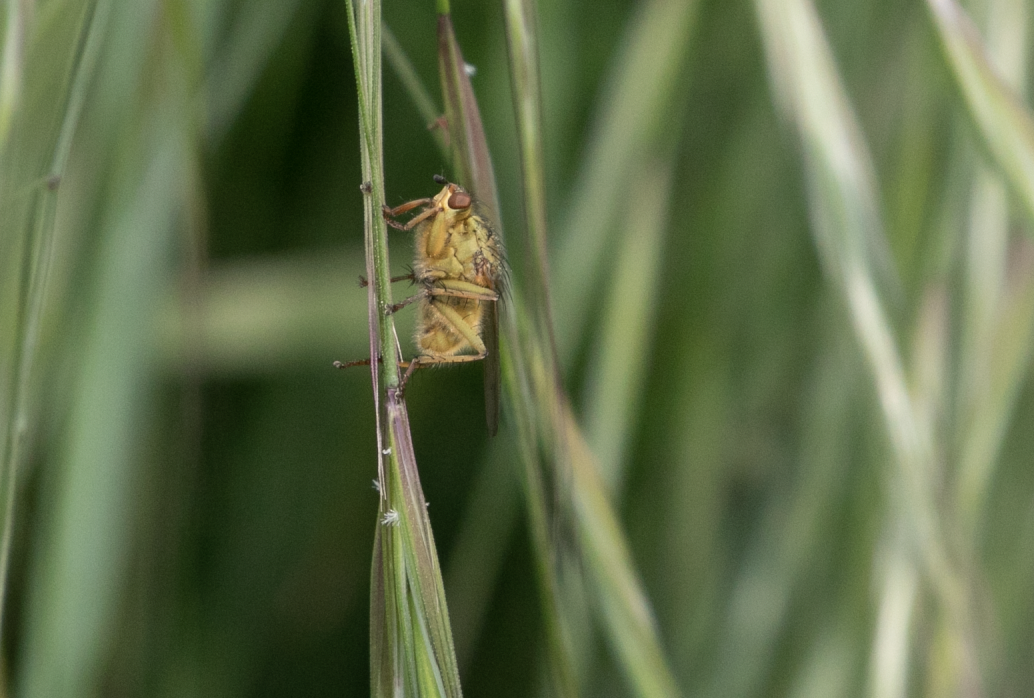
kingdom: Animalia
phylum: Arthropoda
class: Insecta
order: Diptera
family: Scathophagidae
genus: Scathophaga
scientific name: Scathophaga stercoraria
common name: Yellow dung fly
